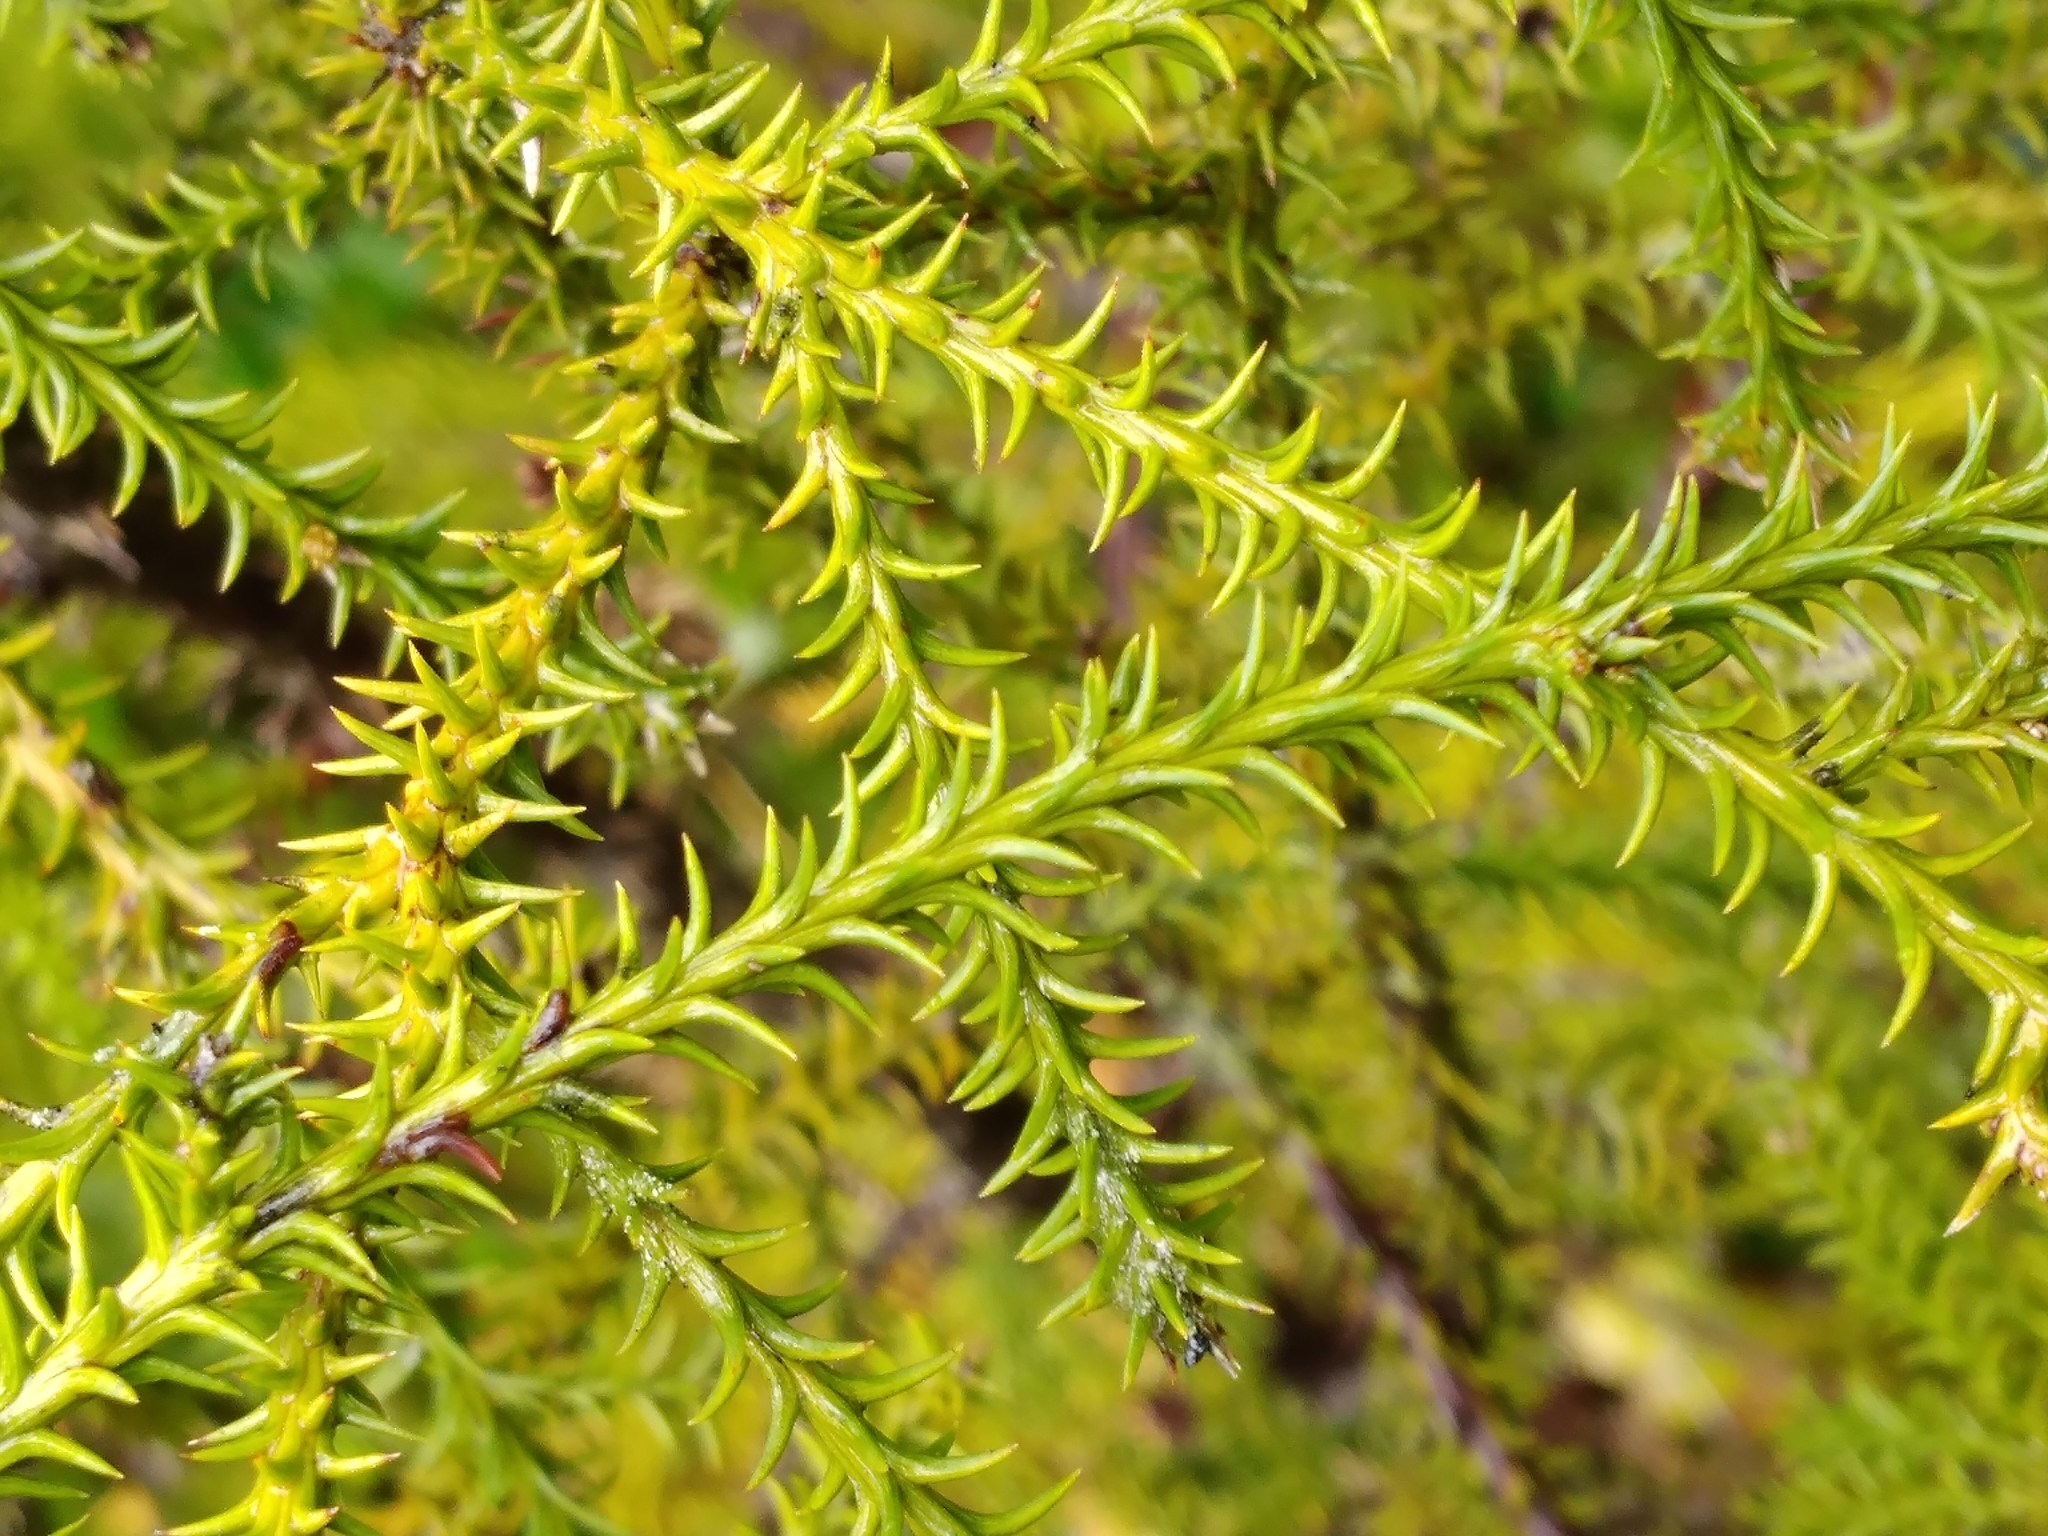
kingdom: Plantae
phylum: Tracheophyta
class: Pinopsida
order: Pinales
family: Podocarpaceae
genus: Lepidothamnus
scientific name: Lepidothamnus intermedius
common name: Yellow silver pine
